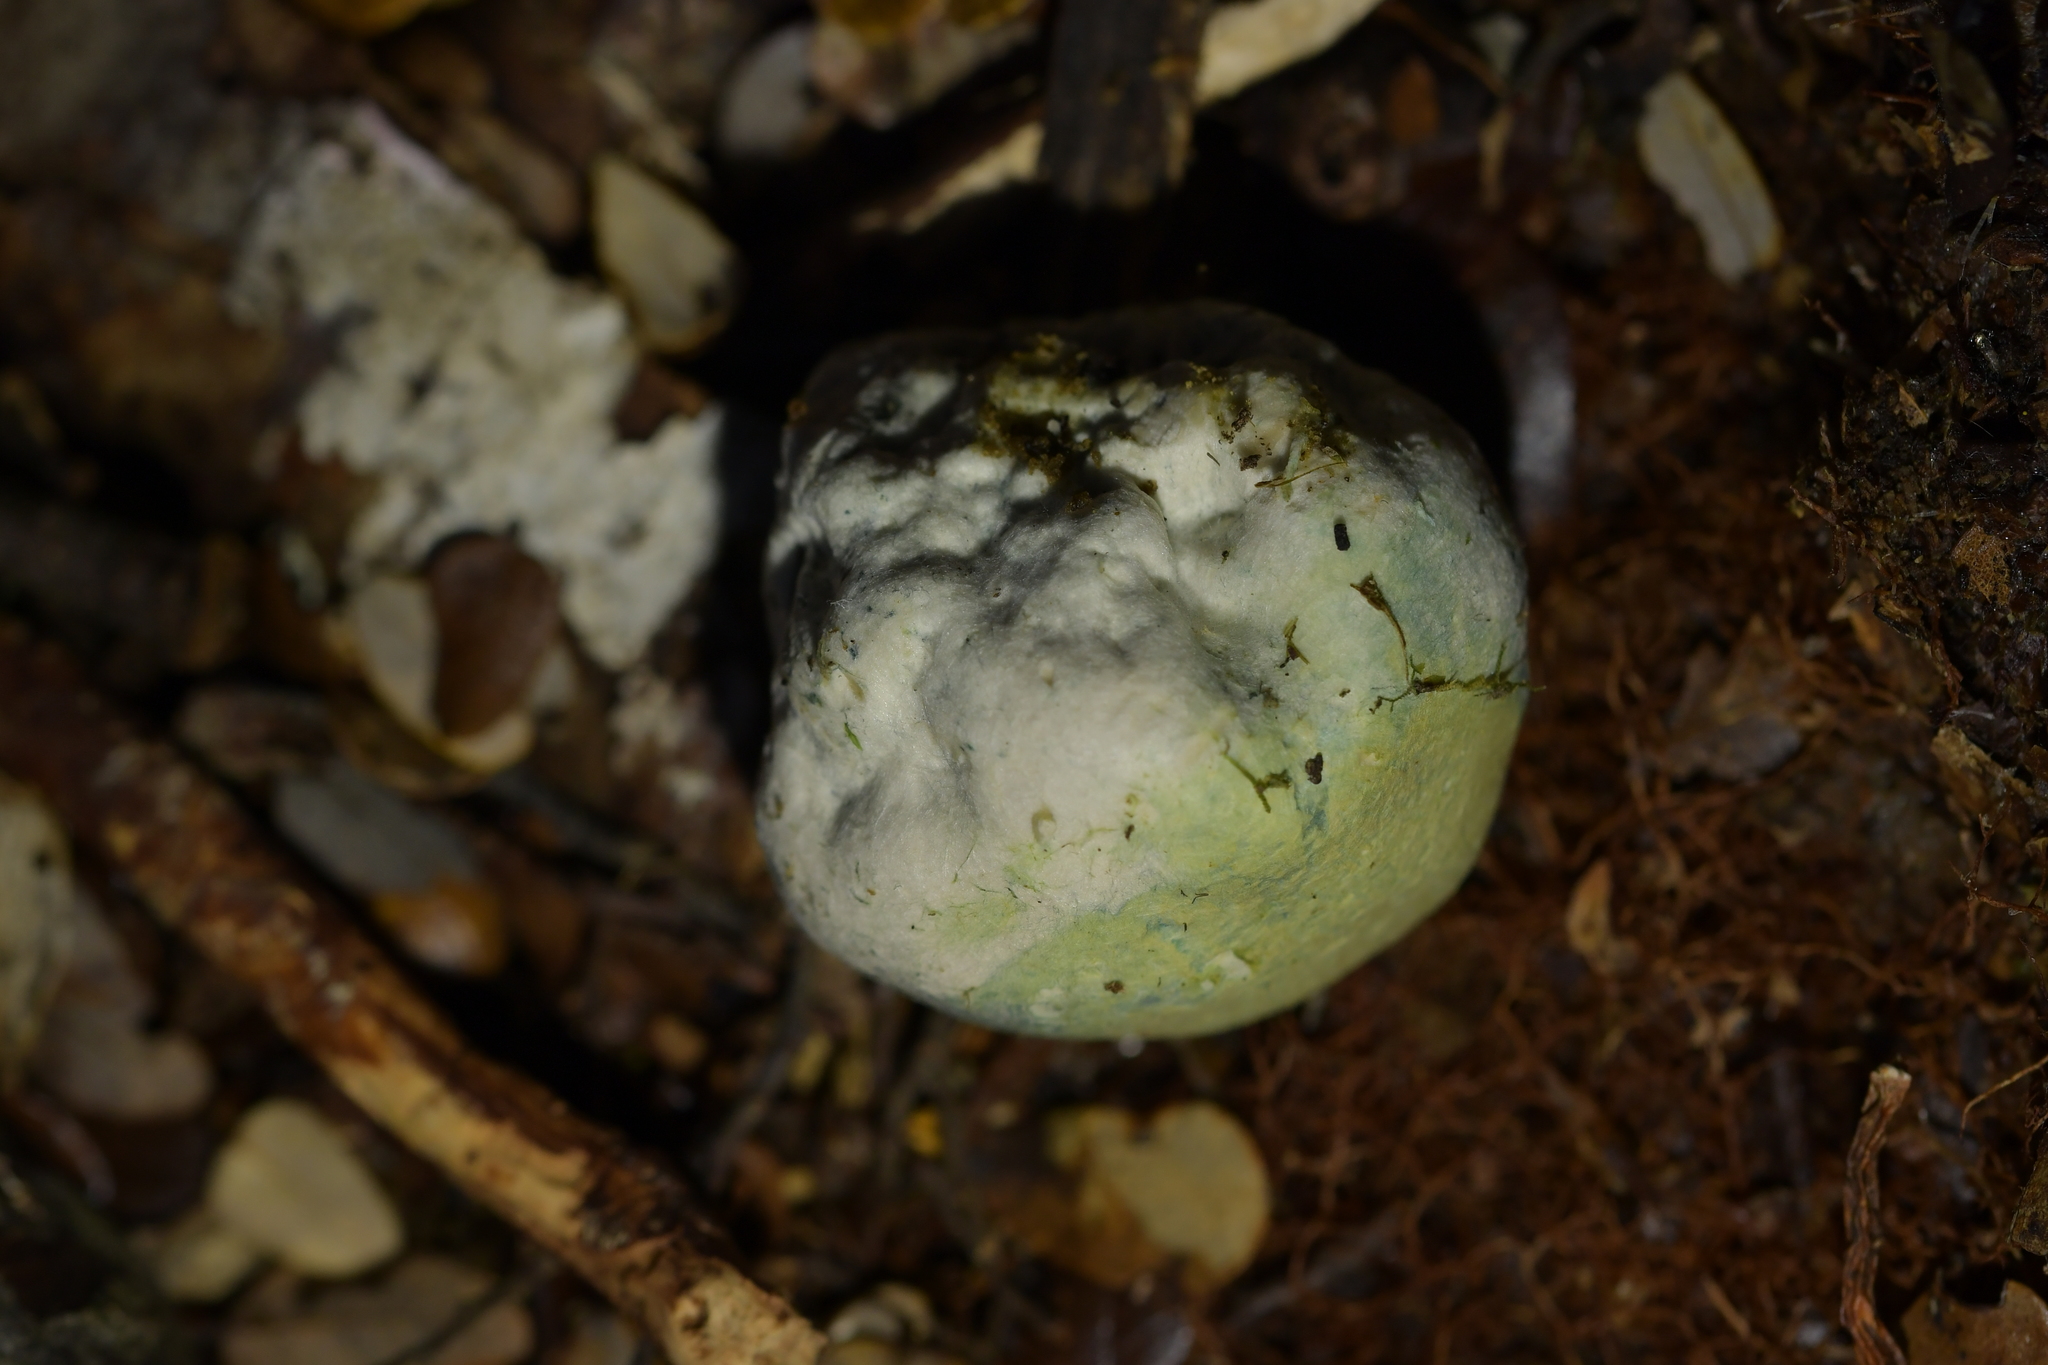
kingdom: Fungi
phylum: Basidiomycota
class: Agaricomycetes
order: Boletales
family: Boletaceae
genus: Leccinum
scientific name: Leccinum pachyderme
